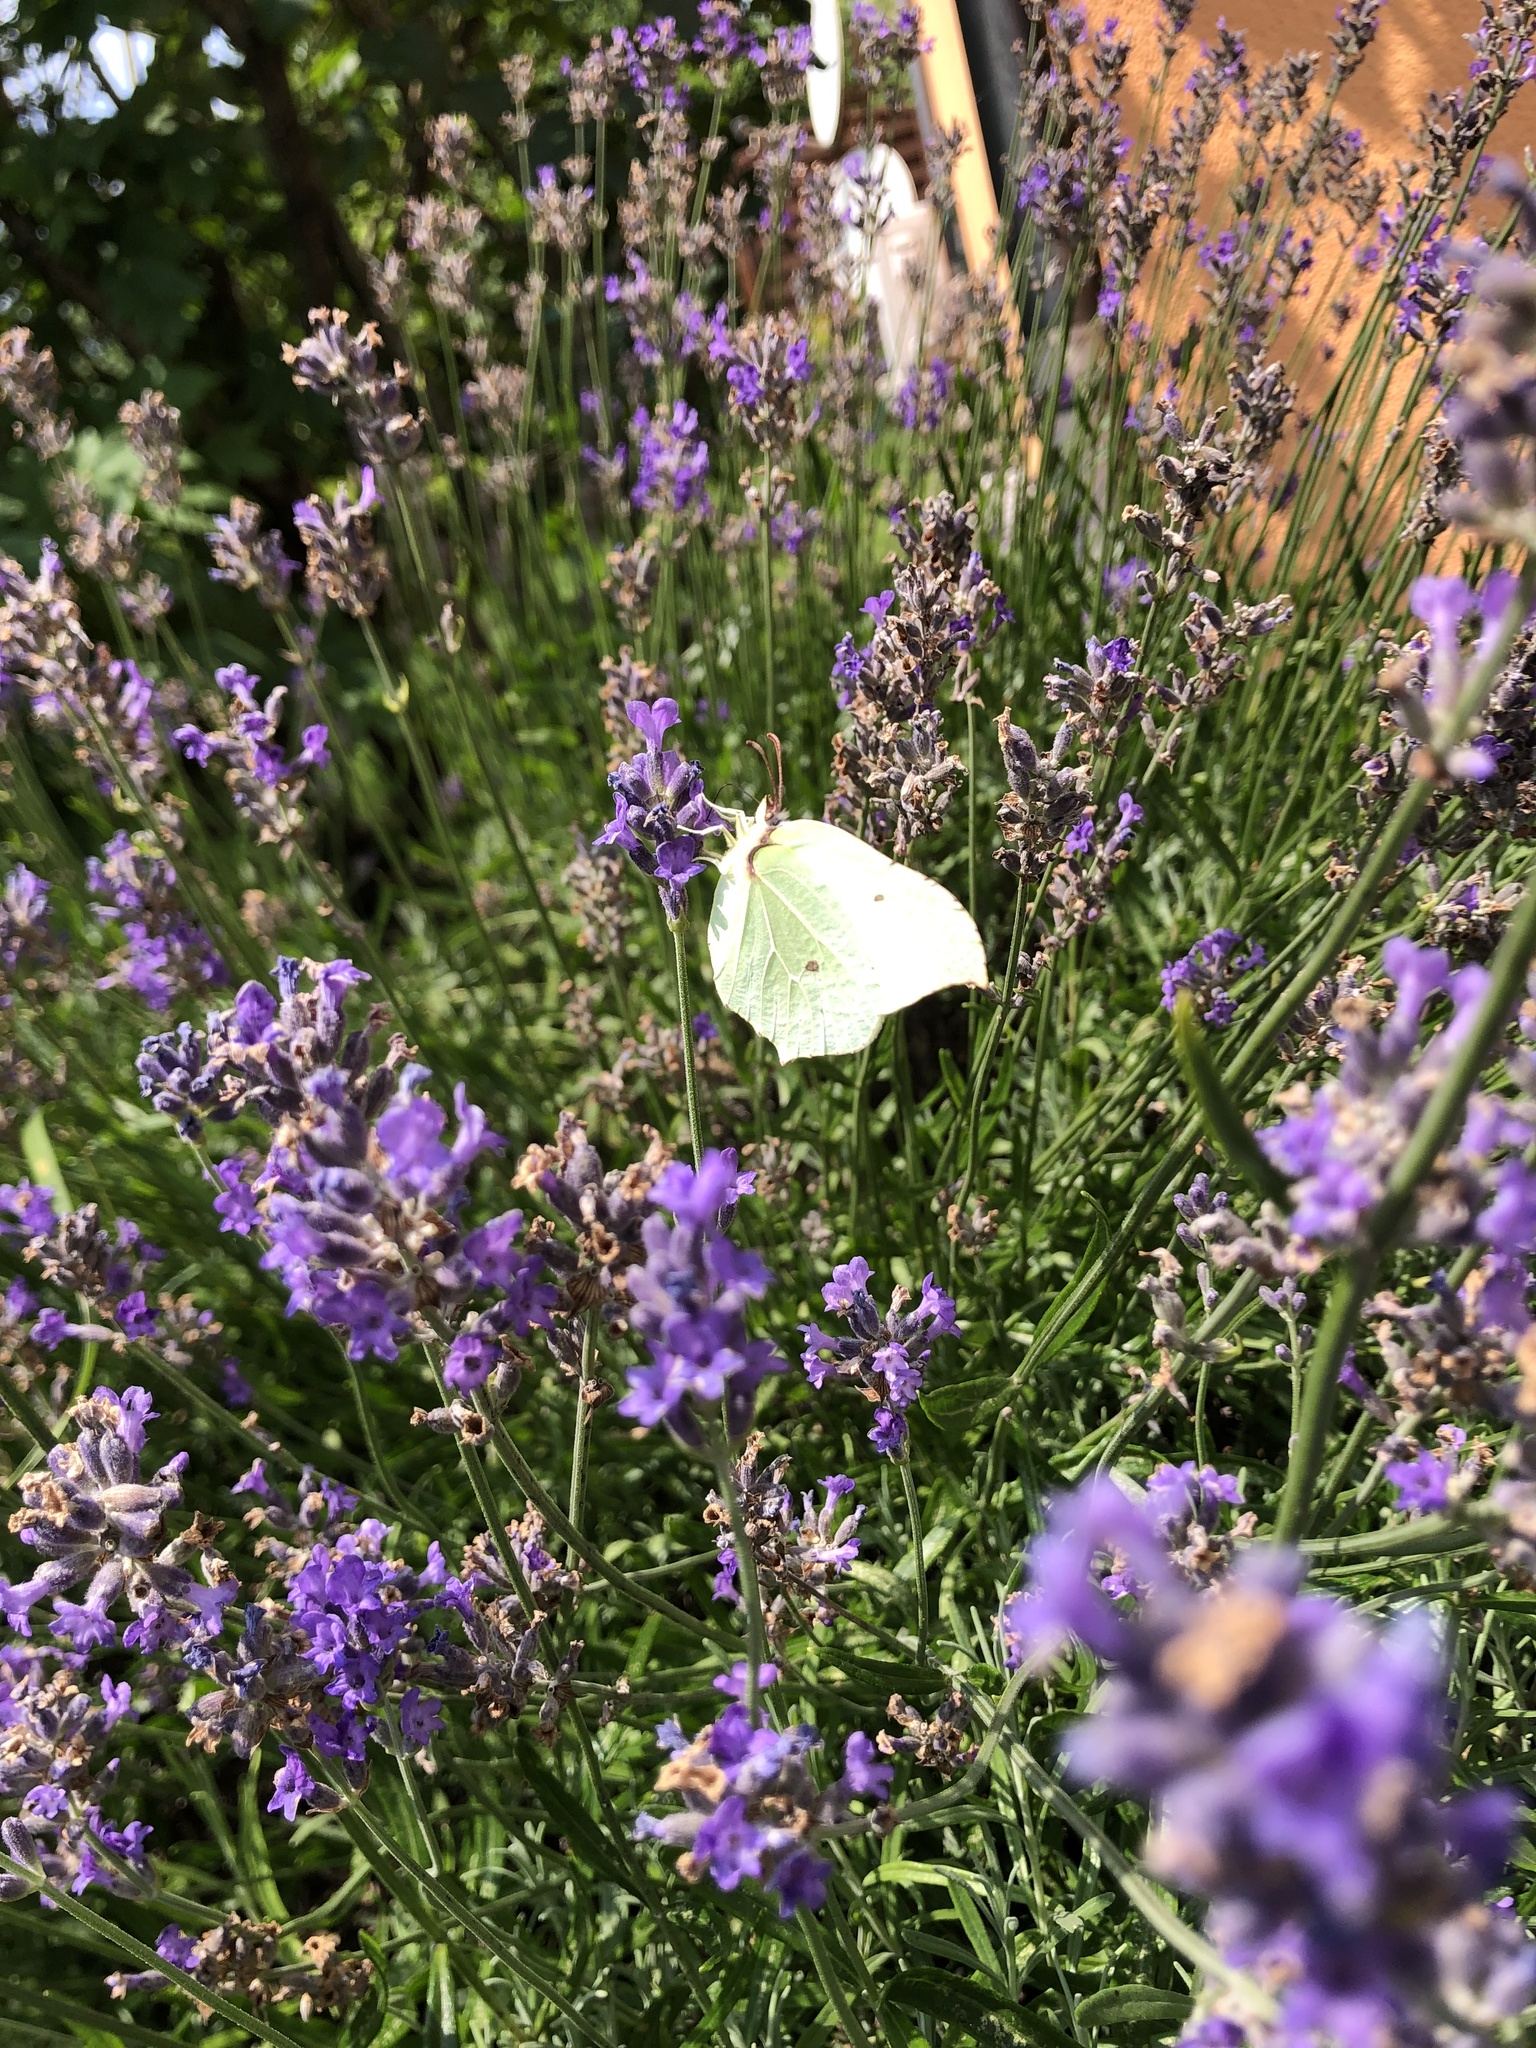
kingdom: Animalia
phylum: Arthropoda
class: Insecta
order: Lepidoptera
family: Pieridae
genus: Gonepteryx
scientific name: Gonepteryx rhamni
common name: Brimstone
